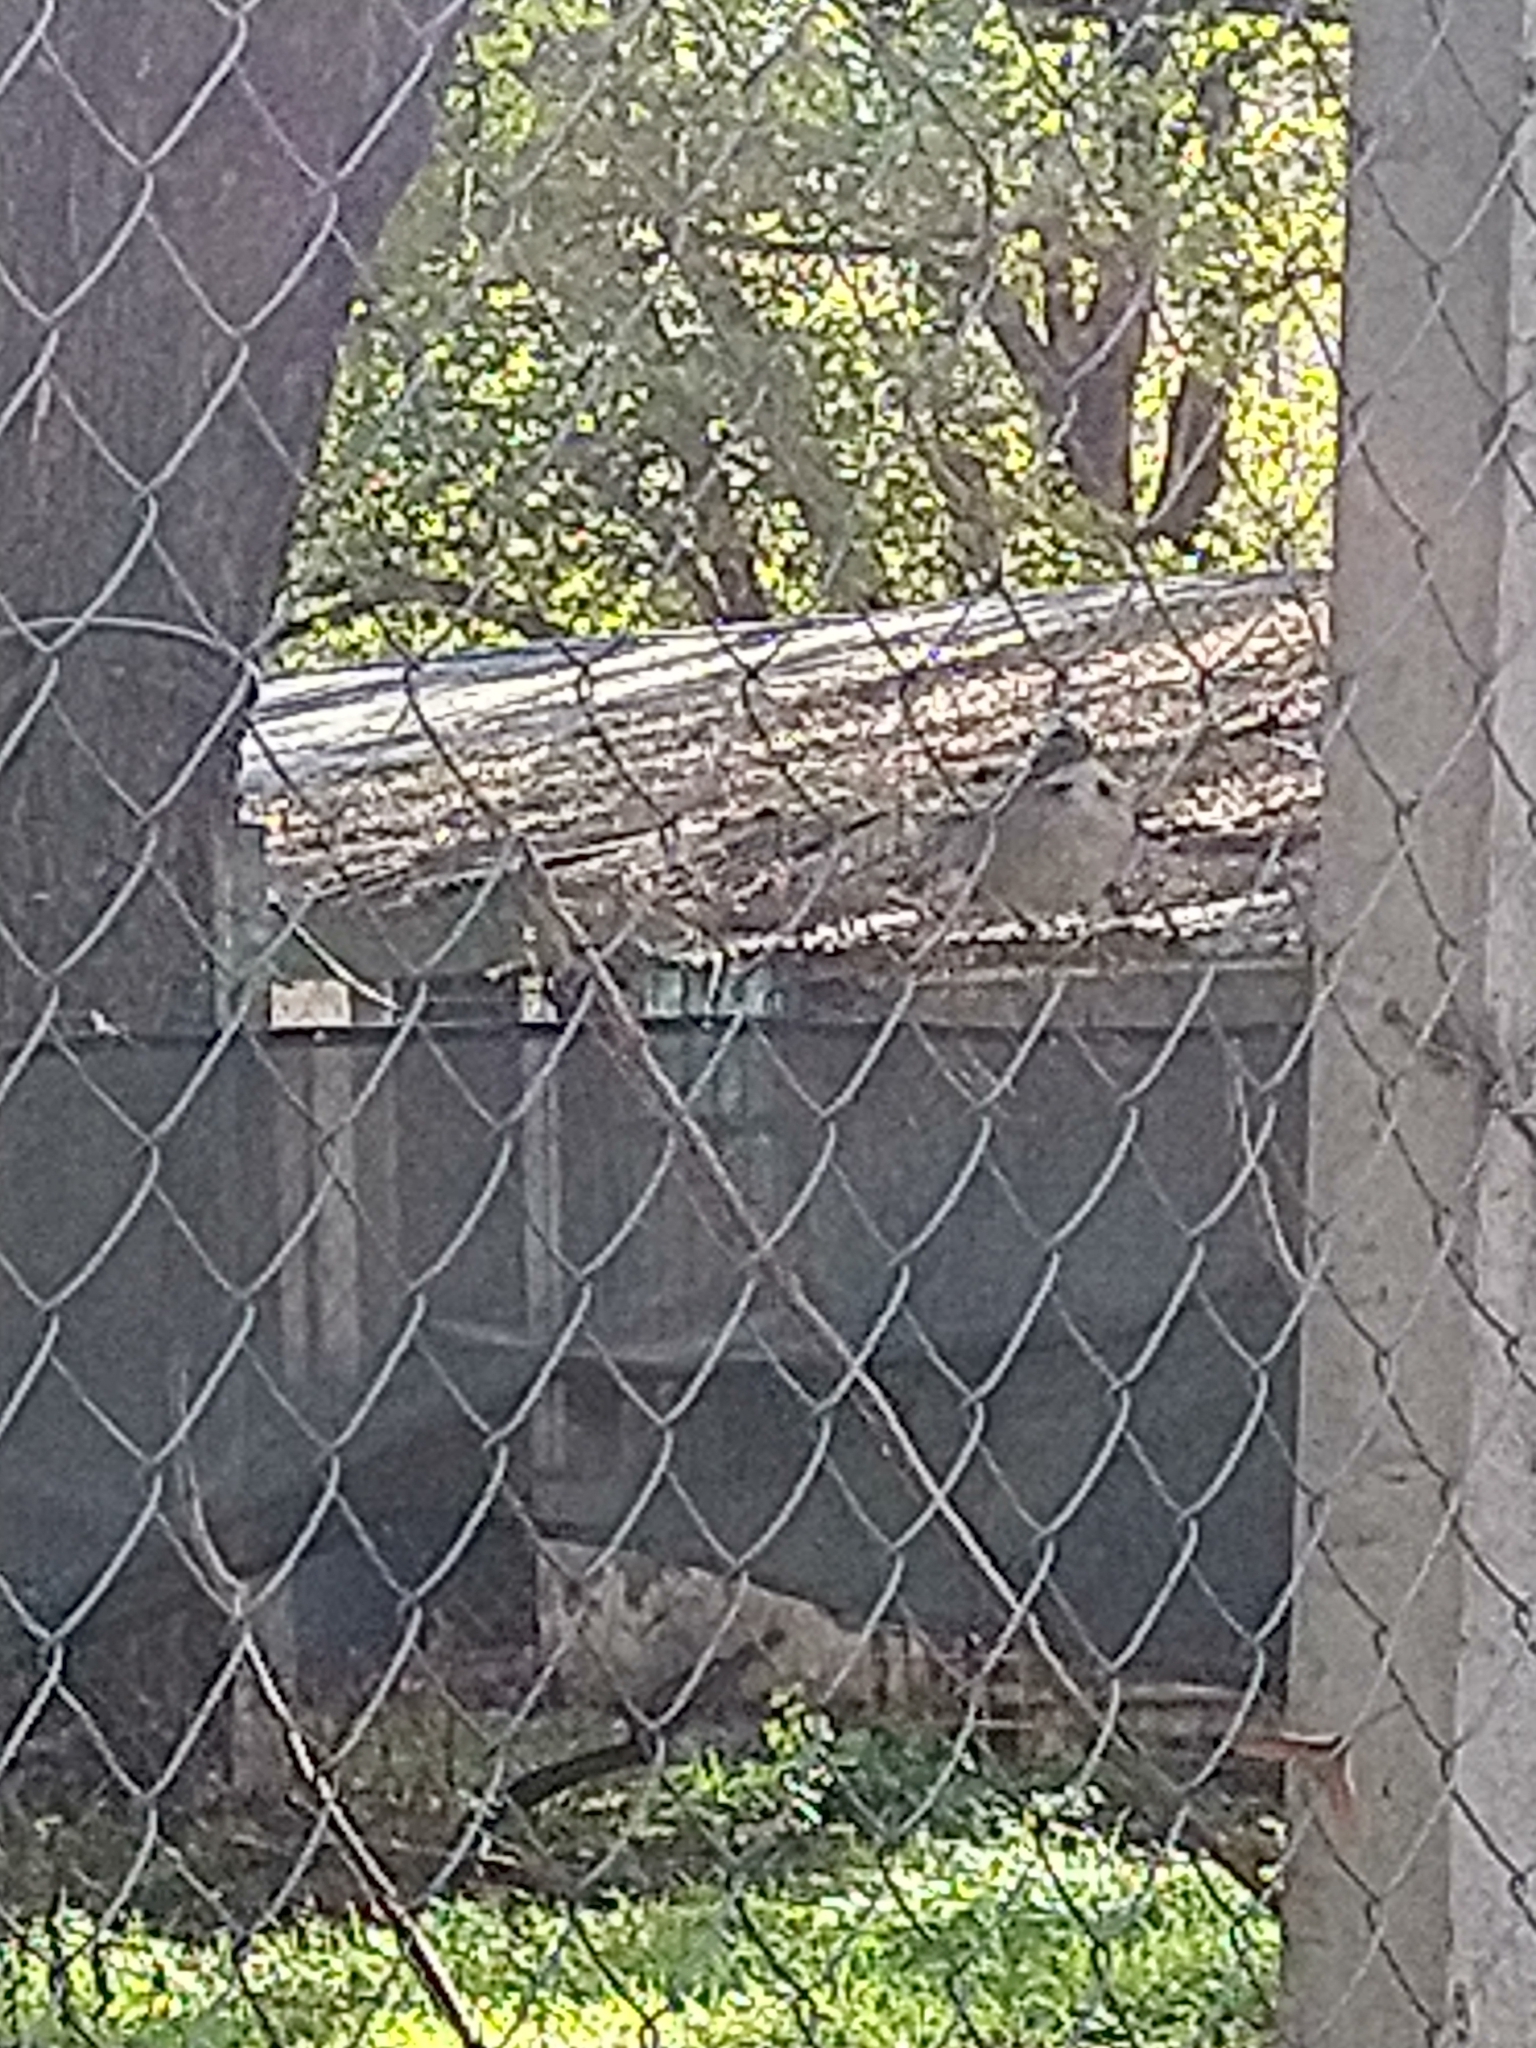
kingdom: Animalia
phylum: Chordata
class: Aves
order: Passeriformes
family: Passerellidae
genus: Zonotrichia
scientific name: Zonotrichia capensis
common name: Rufous-collared sparrow
